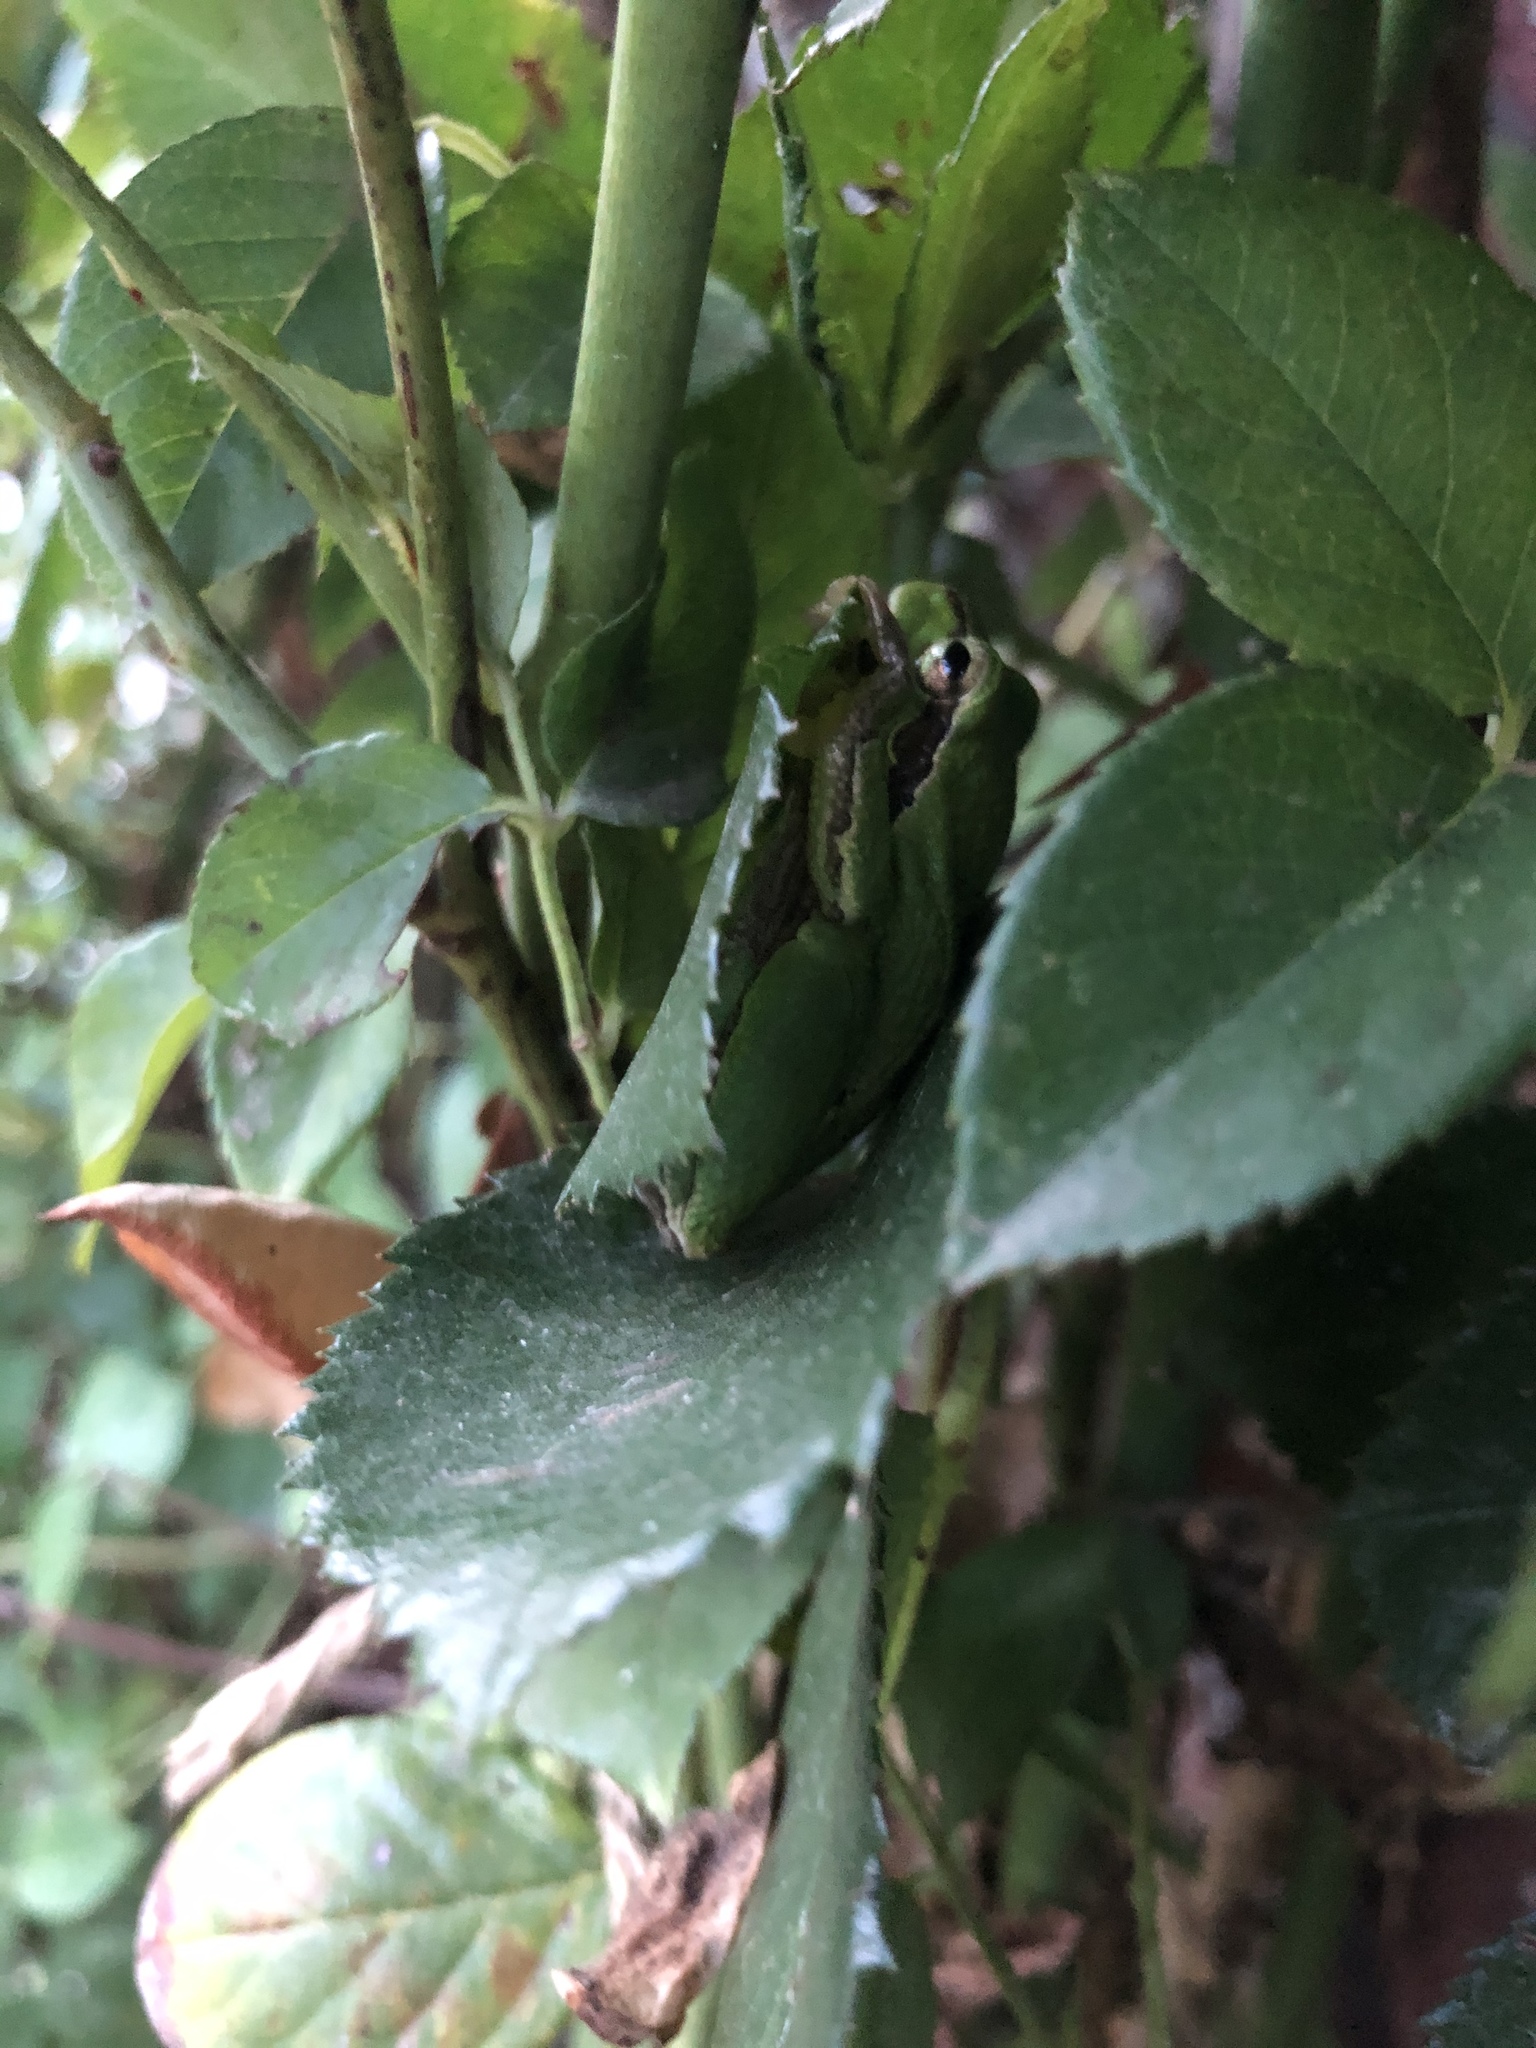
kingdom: Animalia
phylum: Chordata
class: Amphibia
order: Anura
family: Hylidae
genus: Hyla
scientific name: Hyla arborea
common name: Common tree frog
